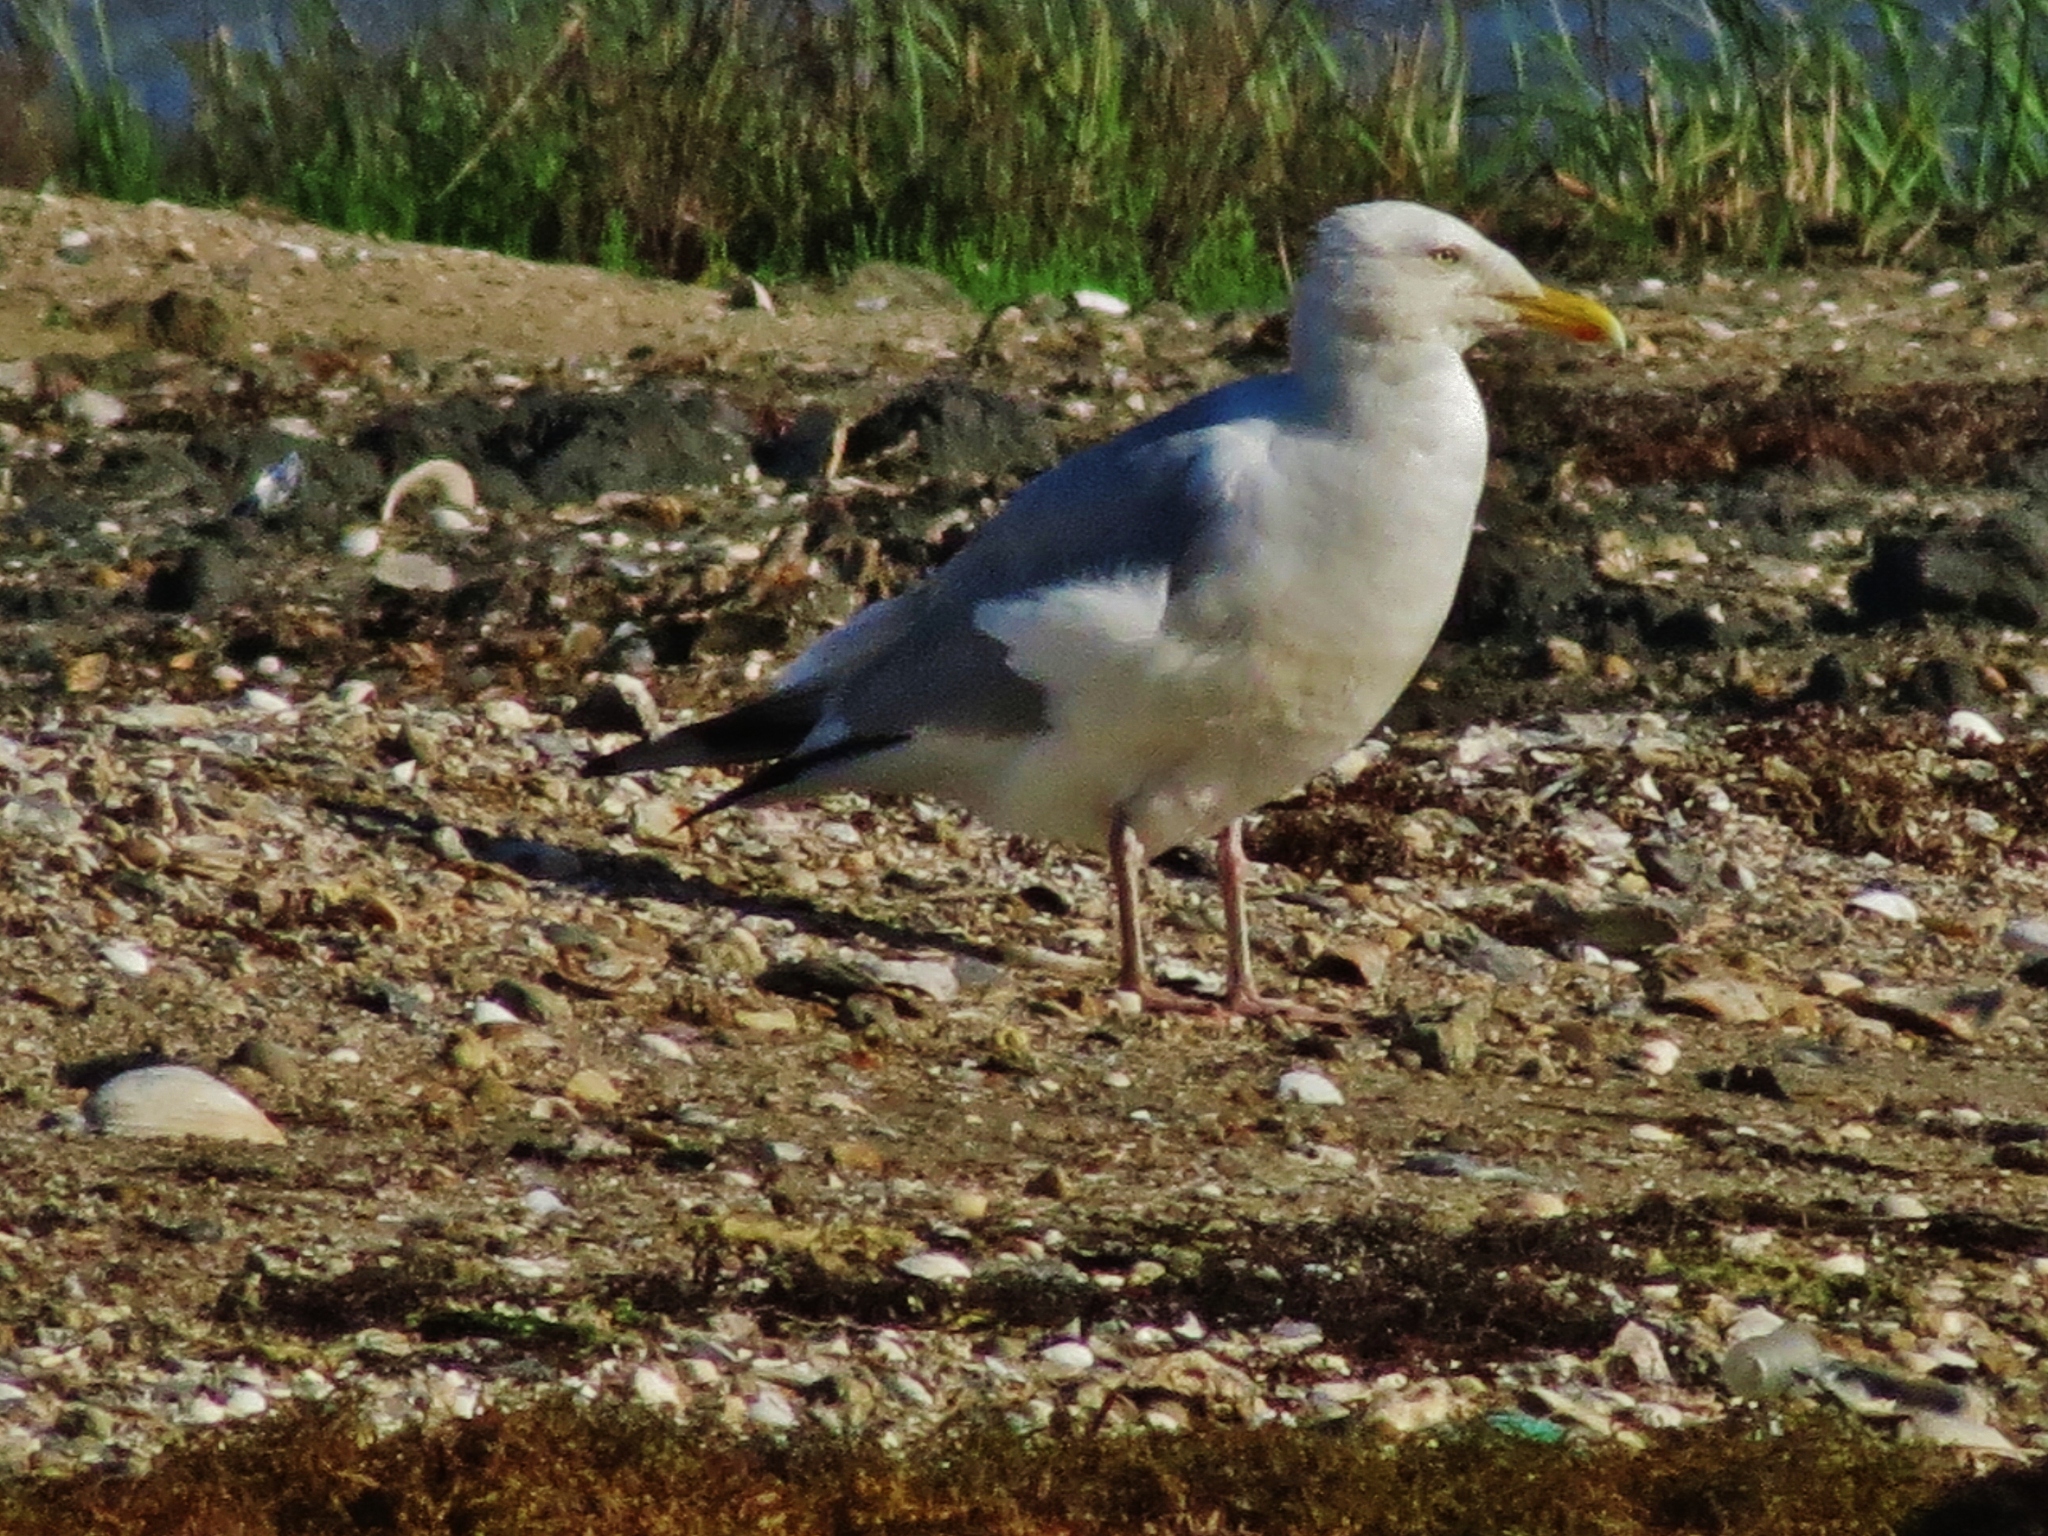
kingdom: Animalia
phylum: Chordata
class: Aves
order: Charadriiformes
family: Laridae
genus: Larus
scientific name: Larus argentatus
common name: Herring gull
